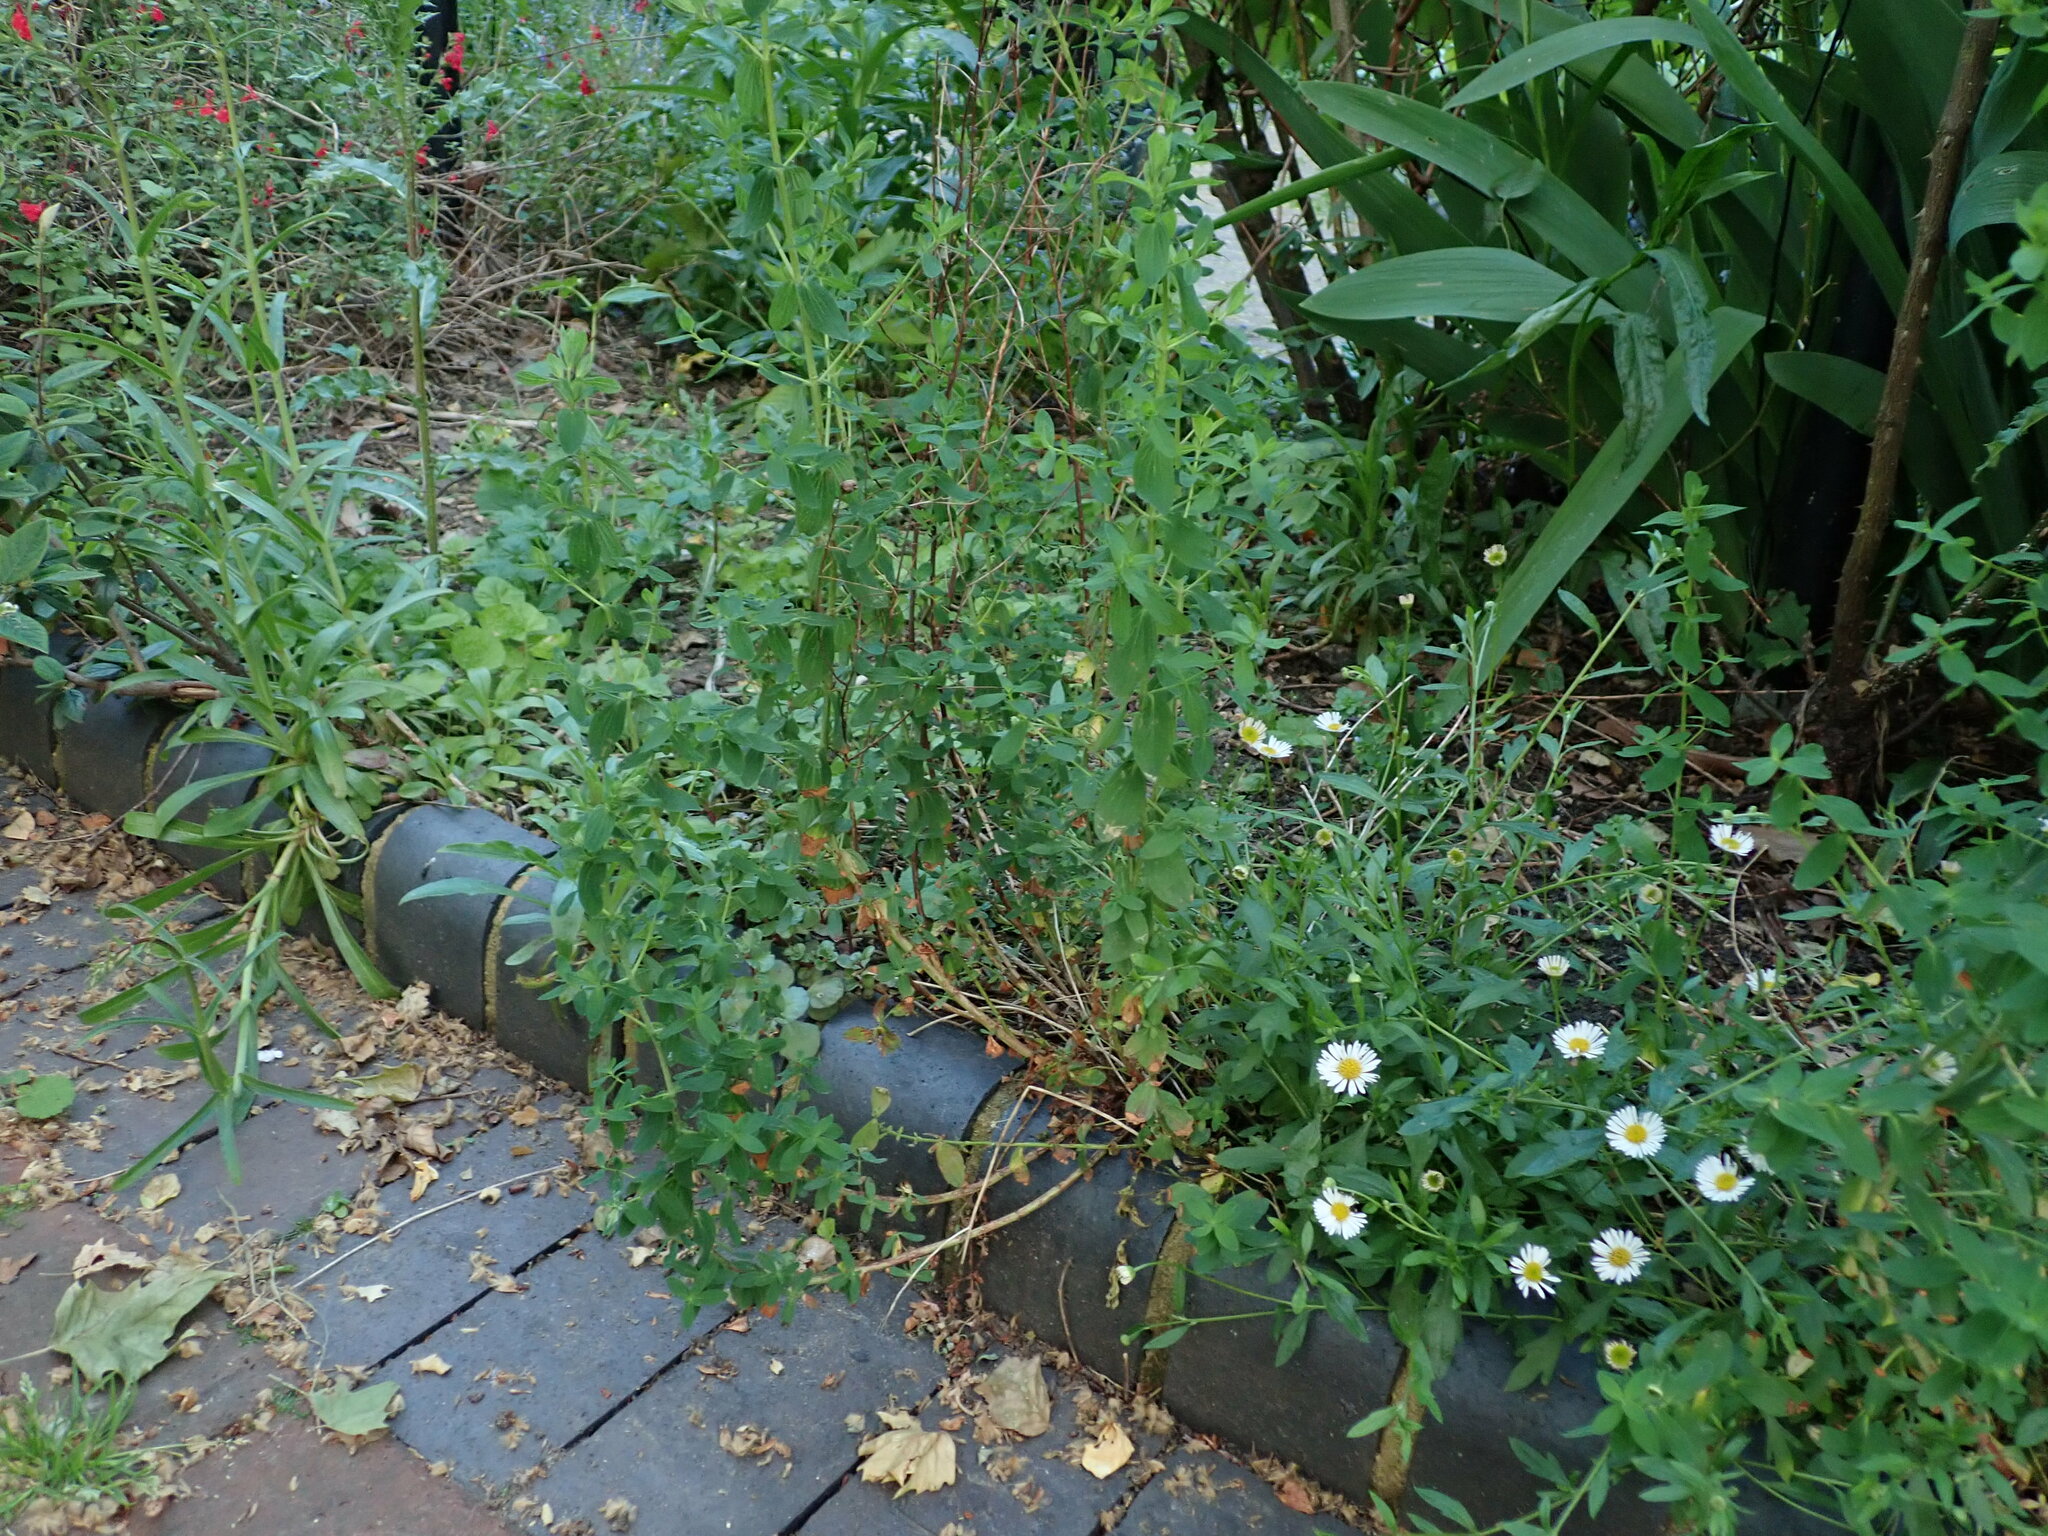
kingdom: Plantae
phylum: Tracheophyta
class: Magnoliopsida
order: Malpighiales
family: Hypericaceae
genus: Hypericum
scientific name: Hypericum perforatum
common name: Common st. johnswort
